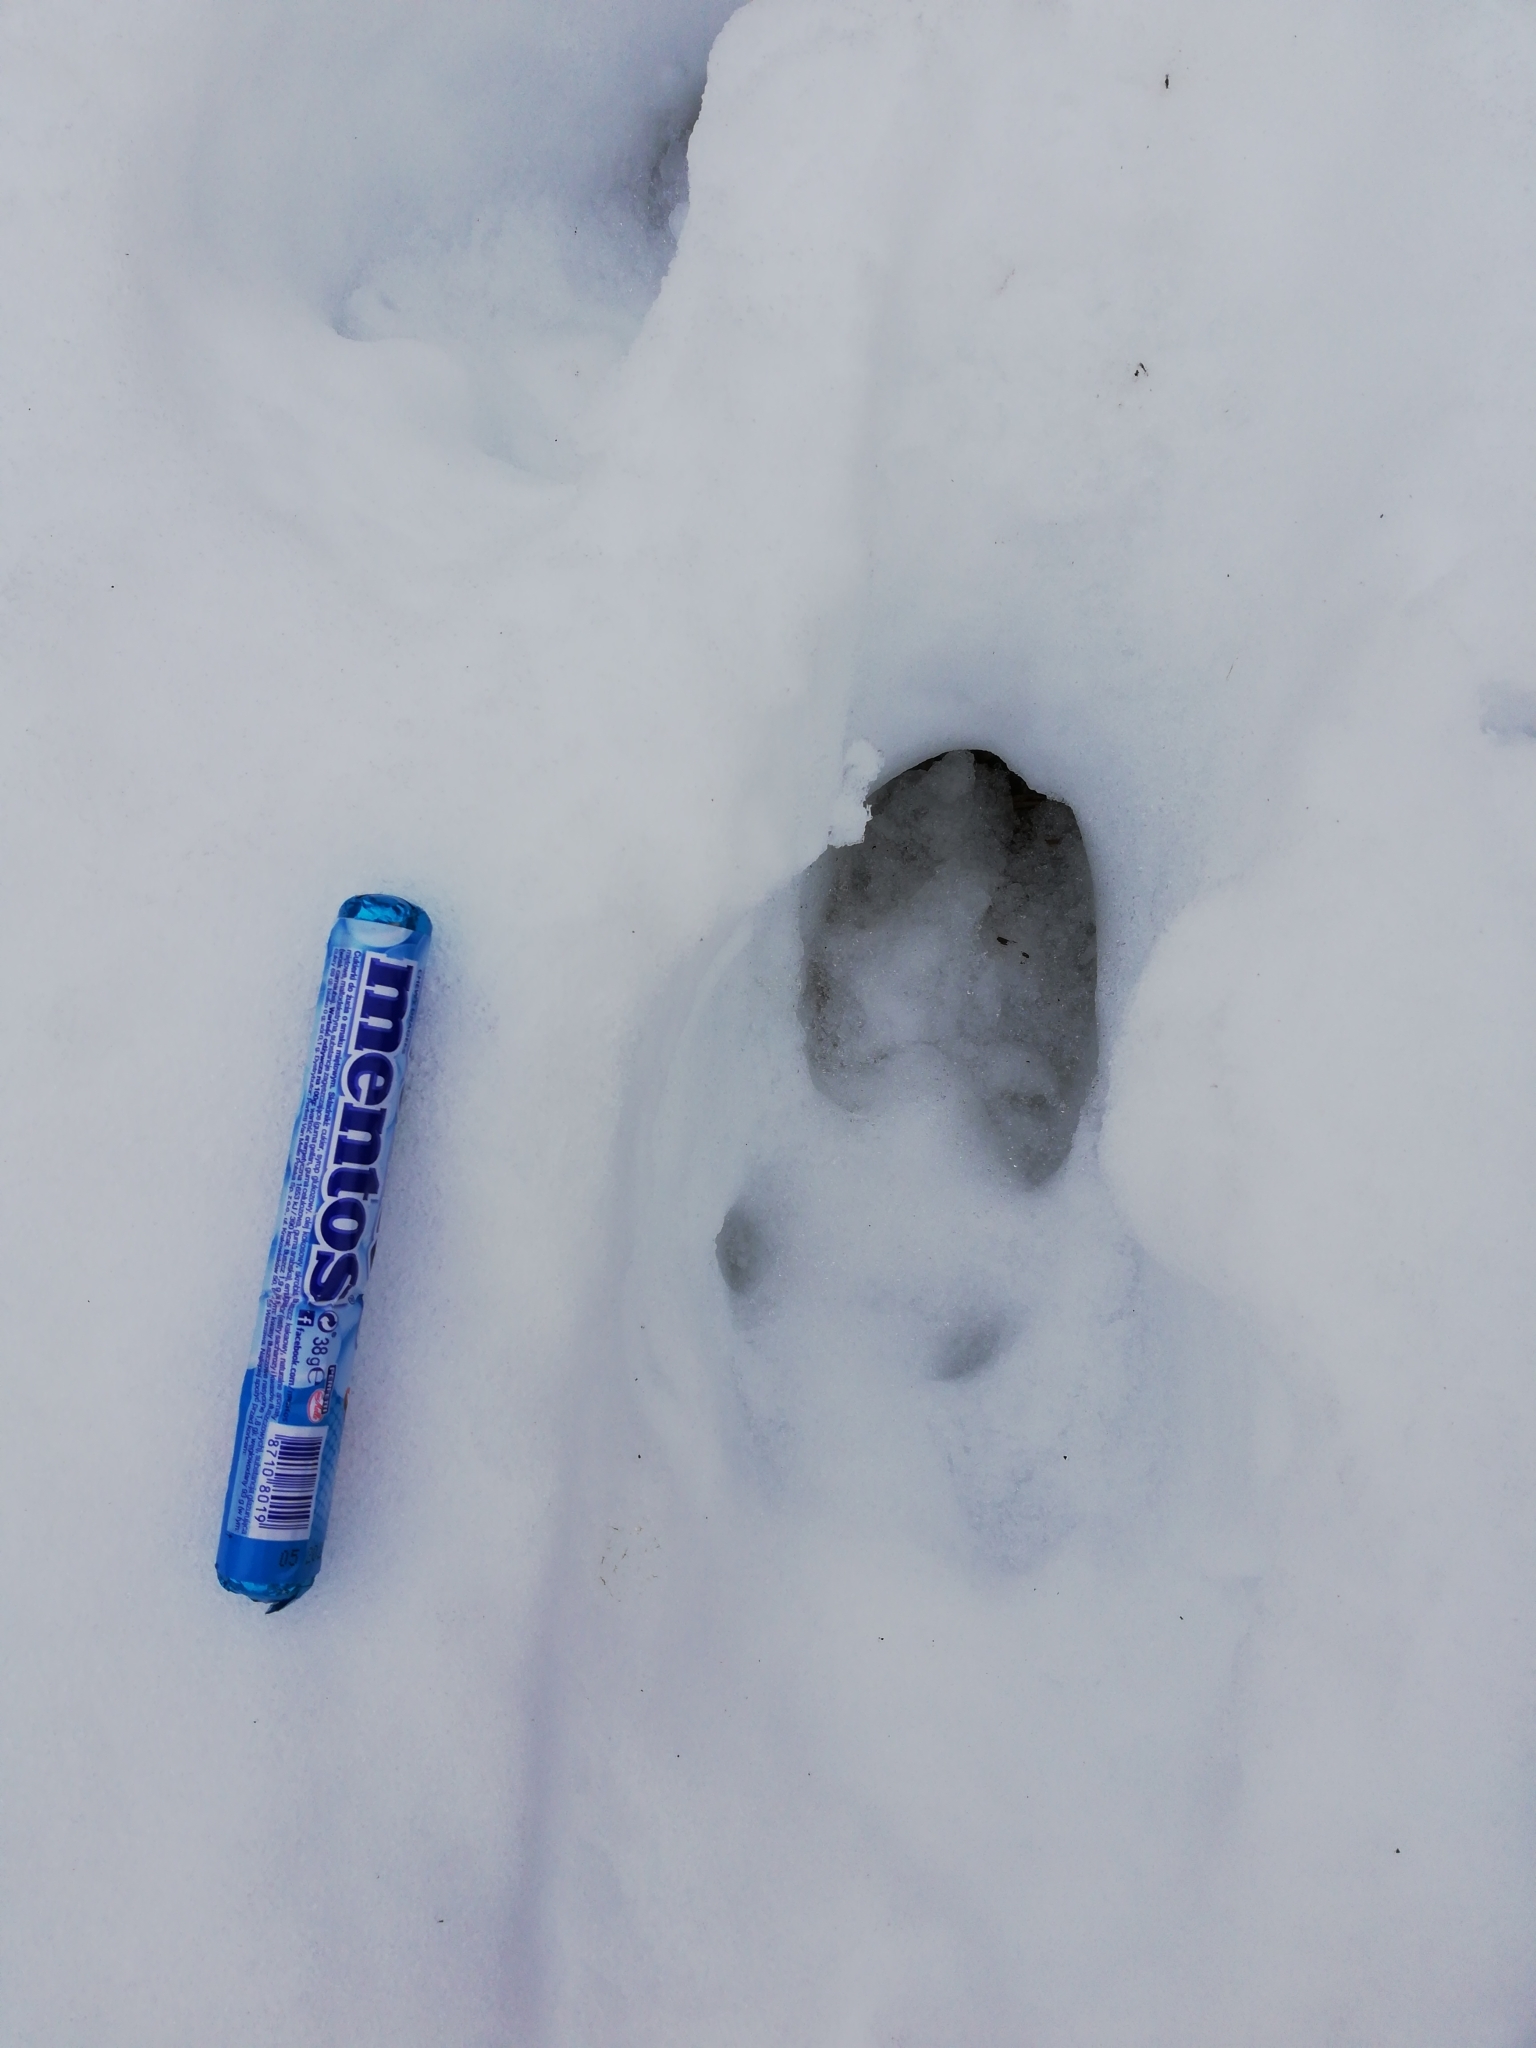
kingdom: Animalia
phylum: Chordata
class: Mammalia
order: Artiodactyla
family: Cervidae
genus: Alces
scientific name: Alces alces
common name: Moose
